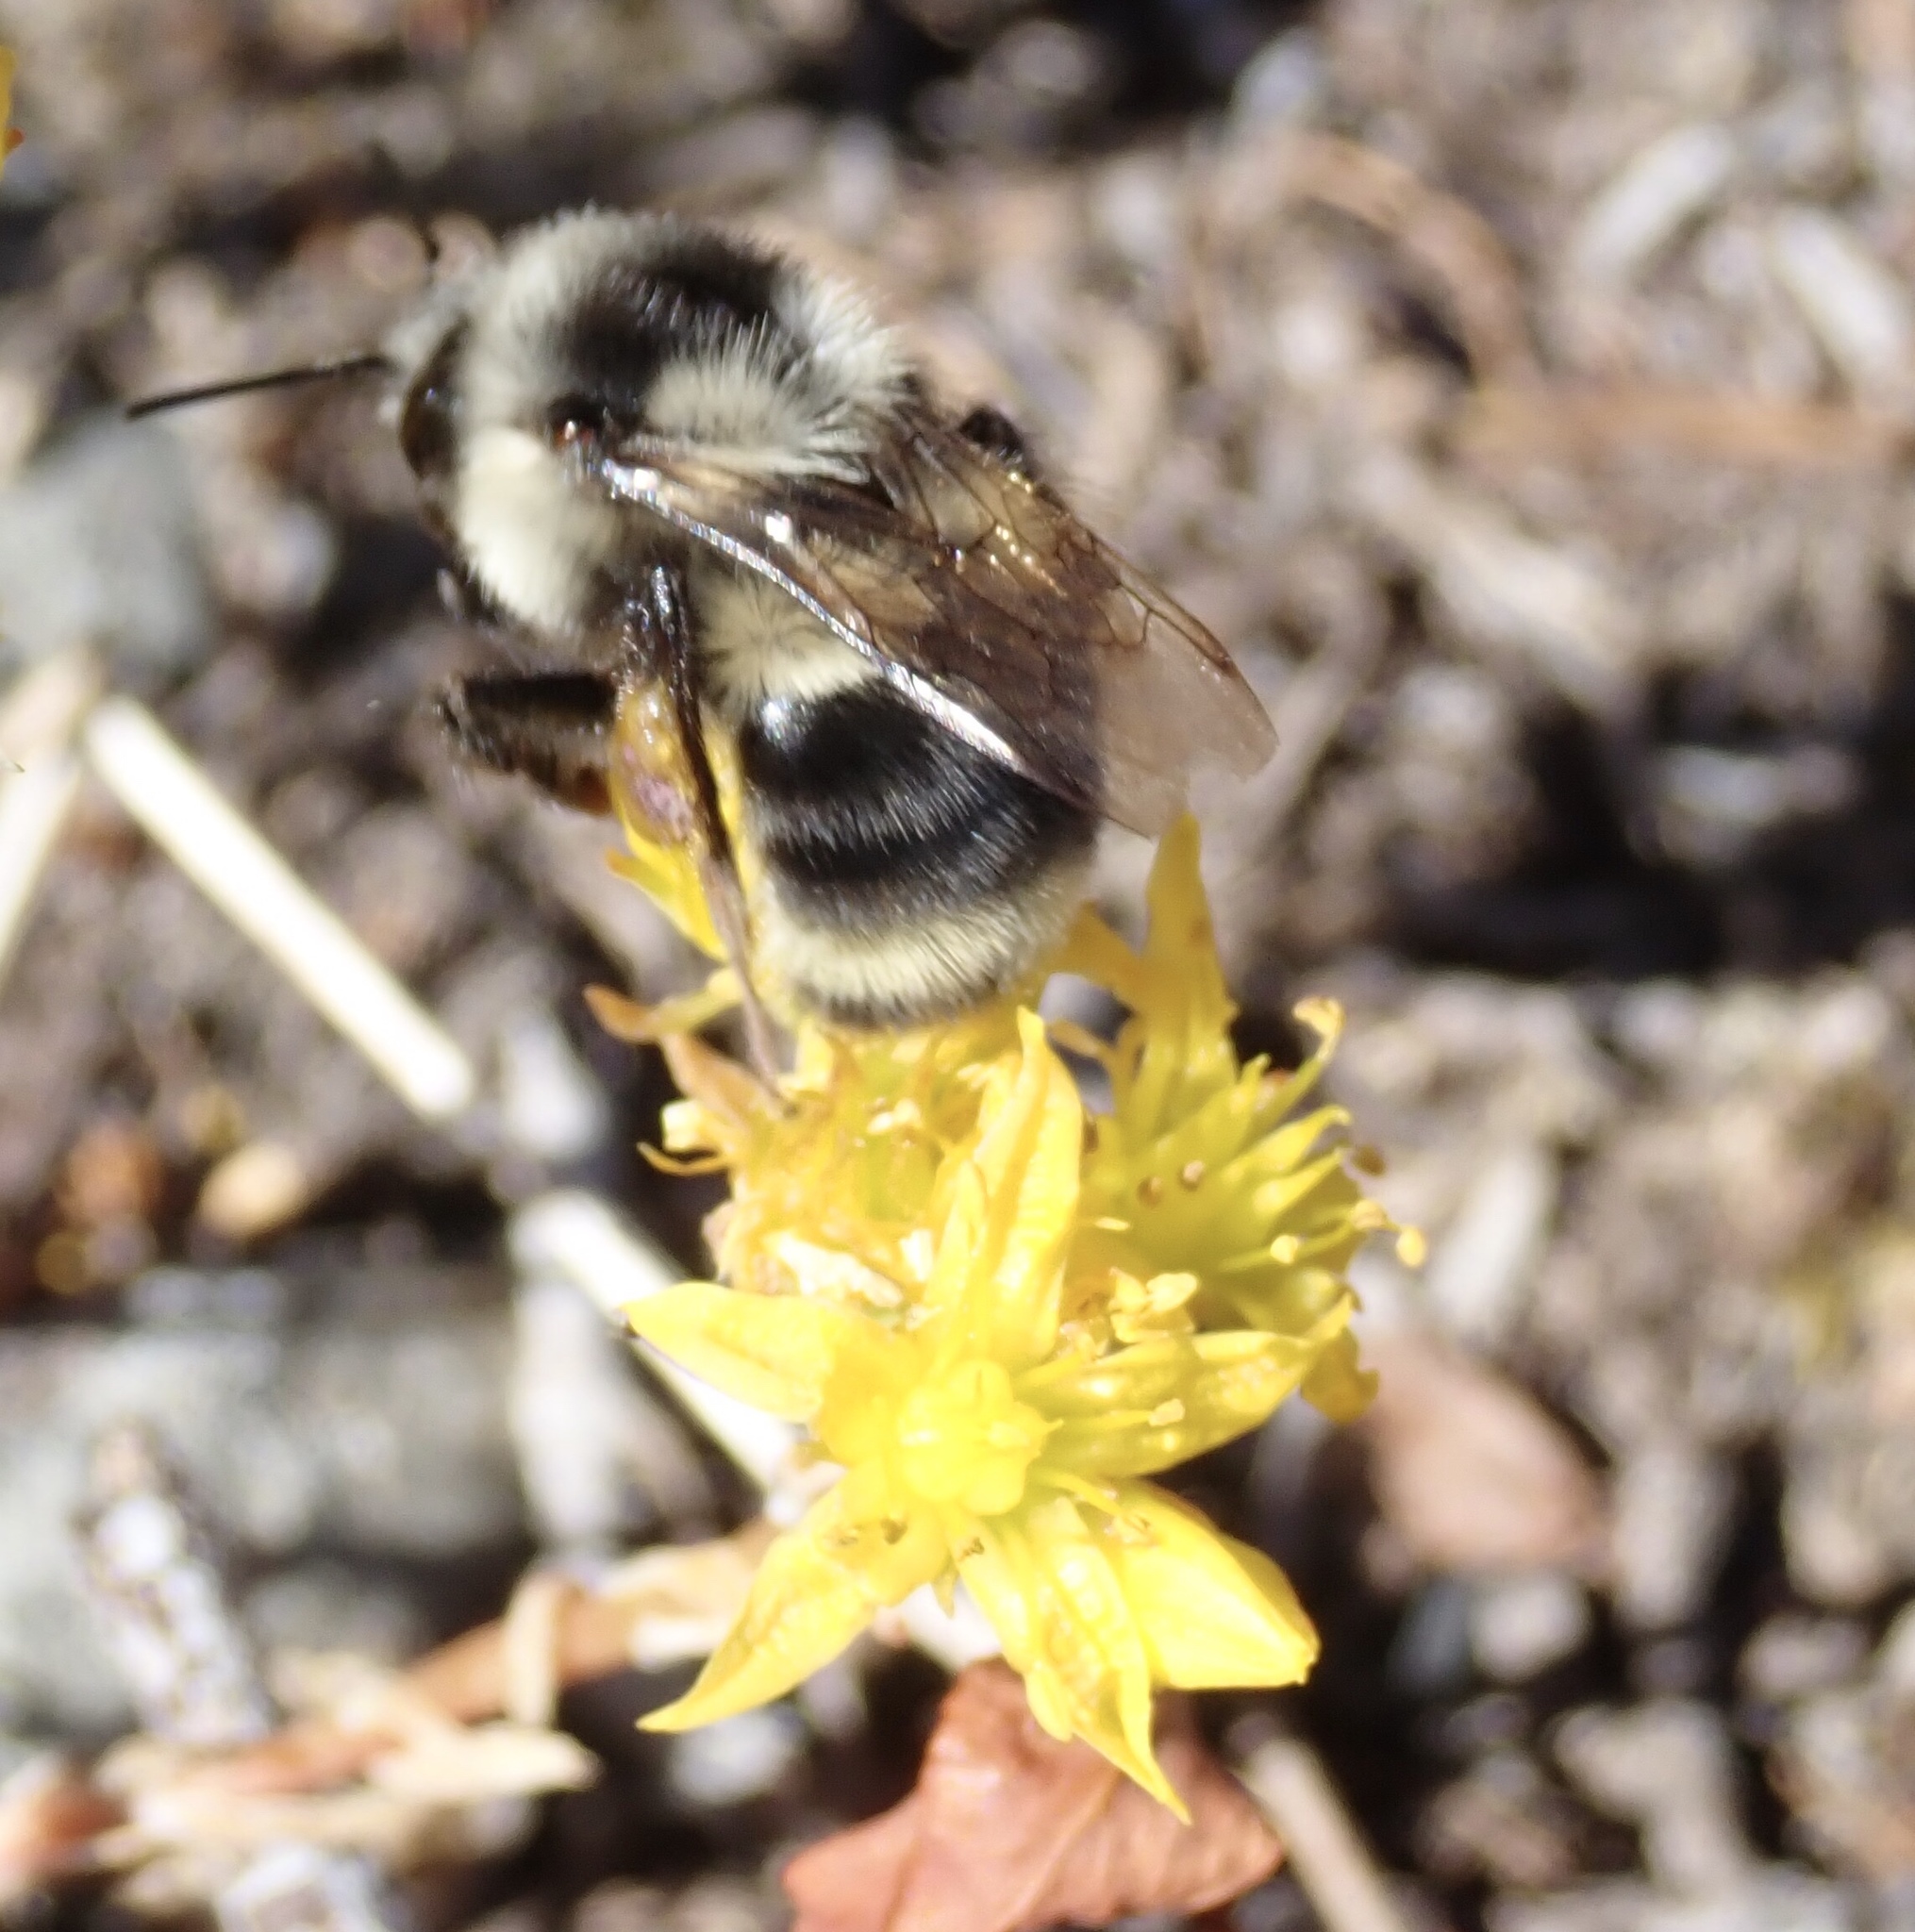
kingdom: Animalia
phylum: Arthropoda
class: Insecta
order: Hymenoptera
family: Apidae
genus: Bombus
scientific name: Bombus vancouverensis
